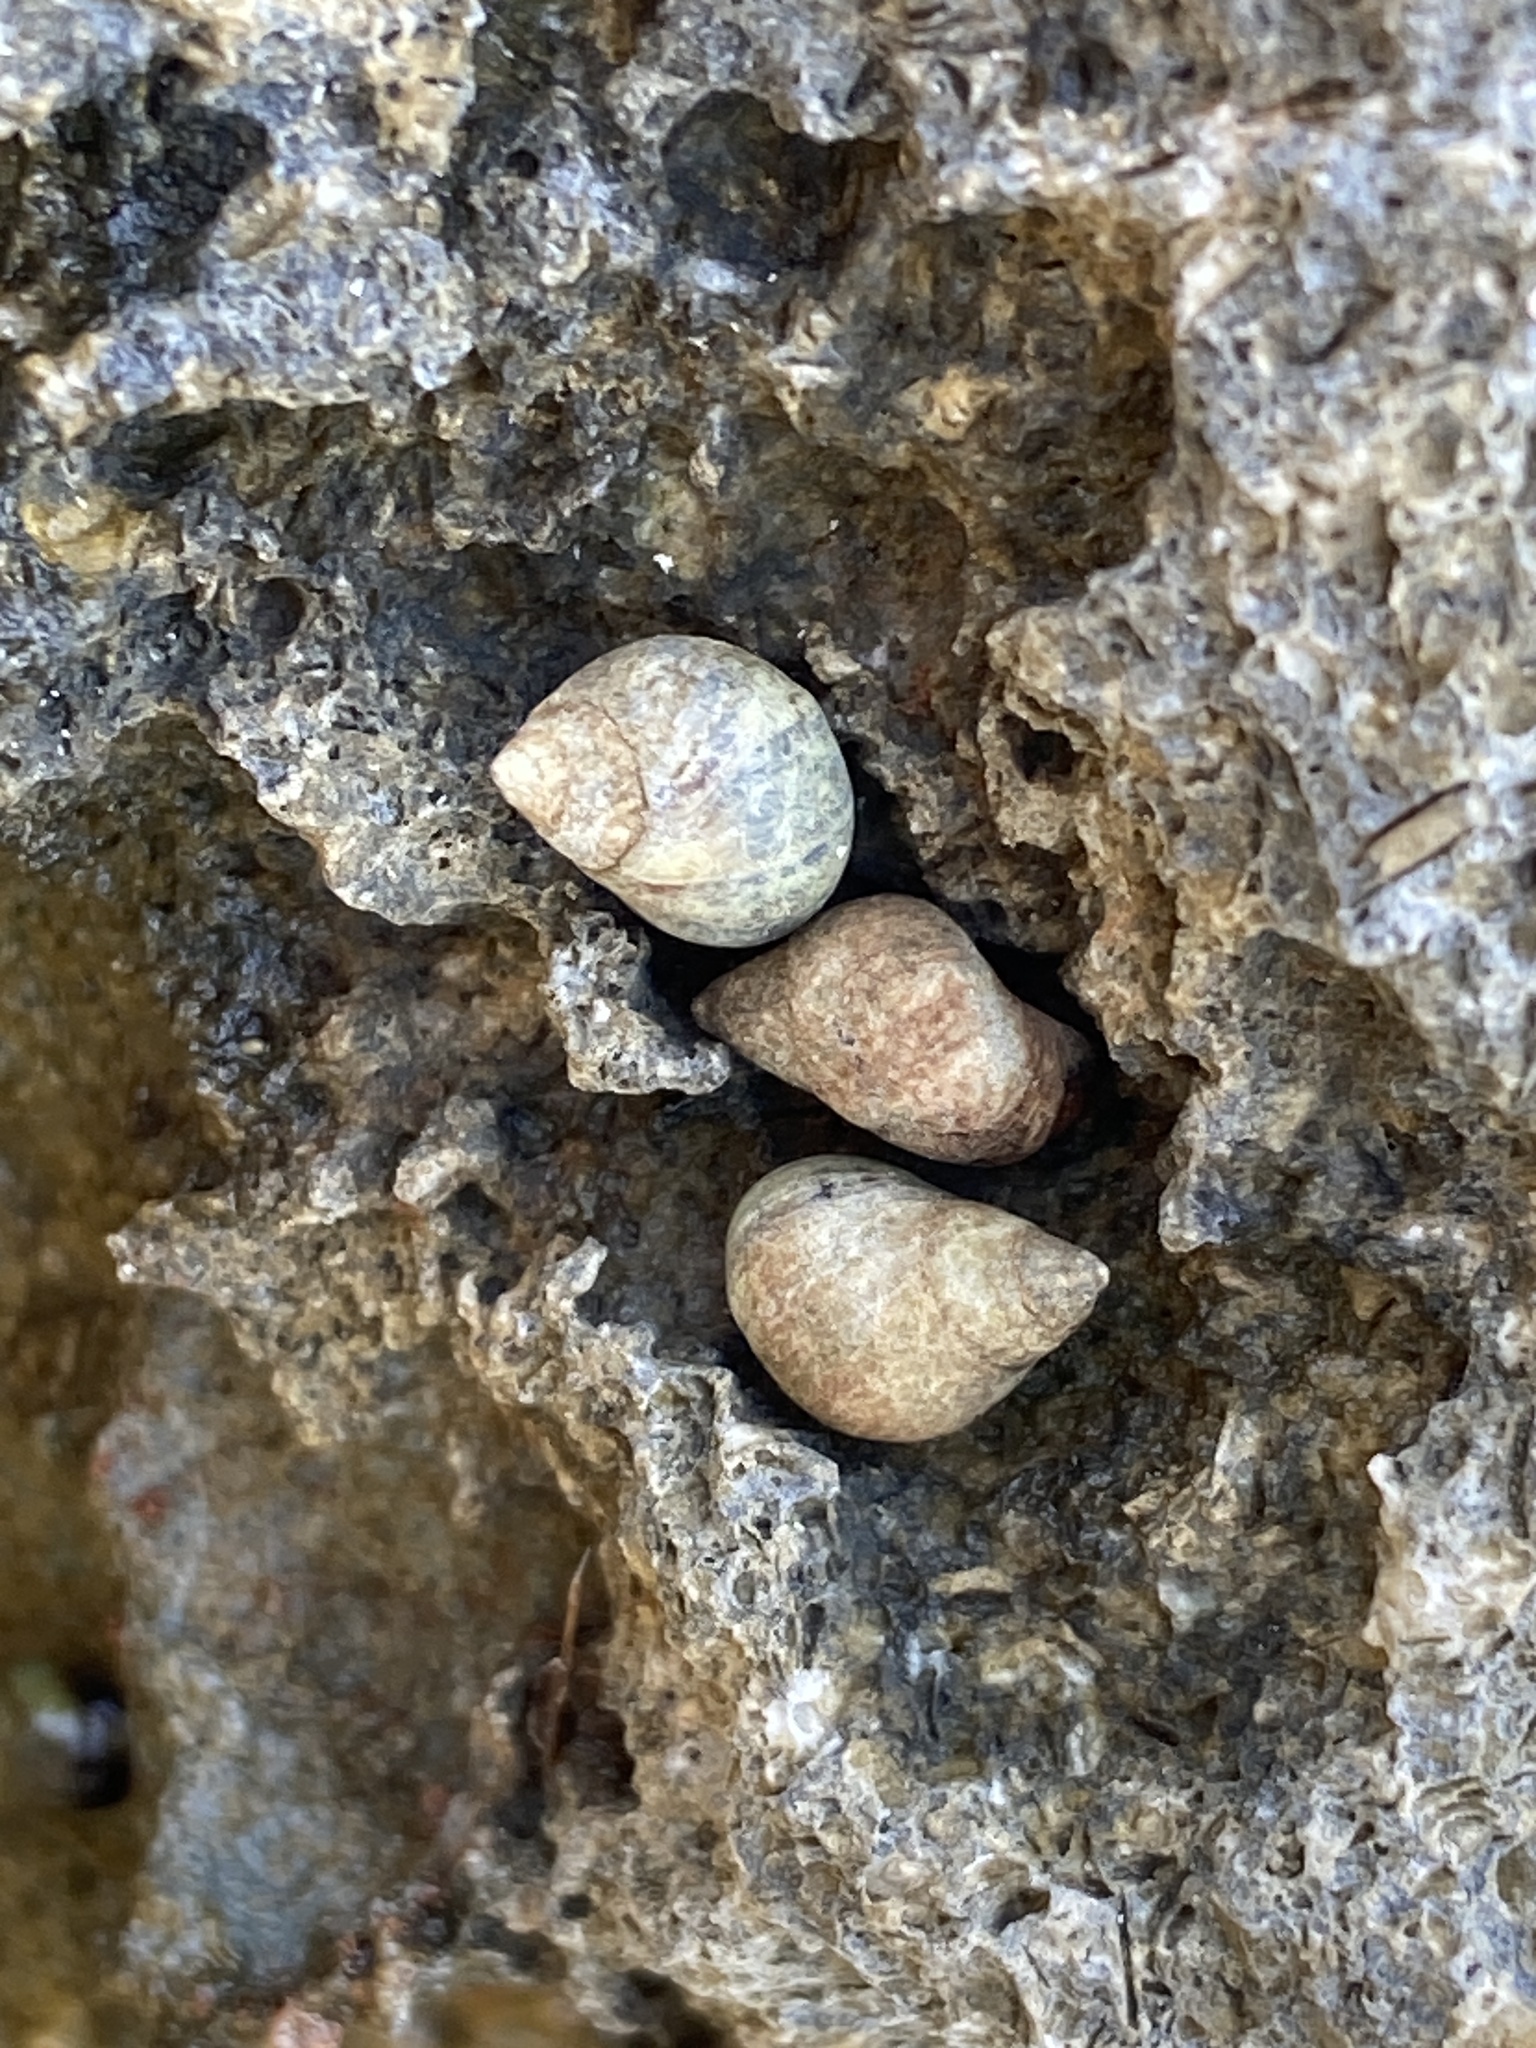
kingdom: Animalia
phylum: Mollusca
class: Gastropoda
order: Littorinimorpha
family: Littorinidae
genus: Melarhaphe
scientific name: Melarhaphe neritoides
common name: Small periwinkle
